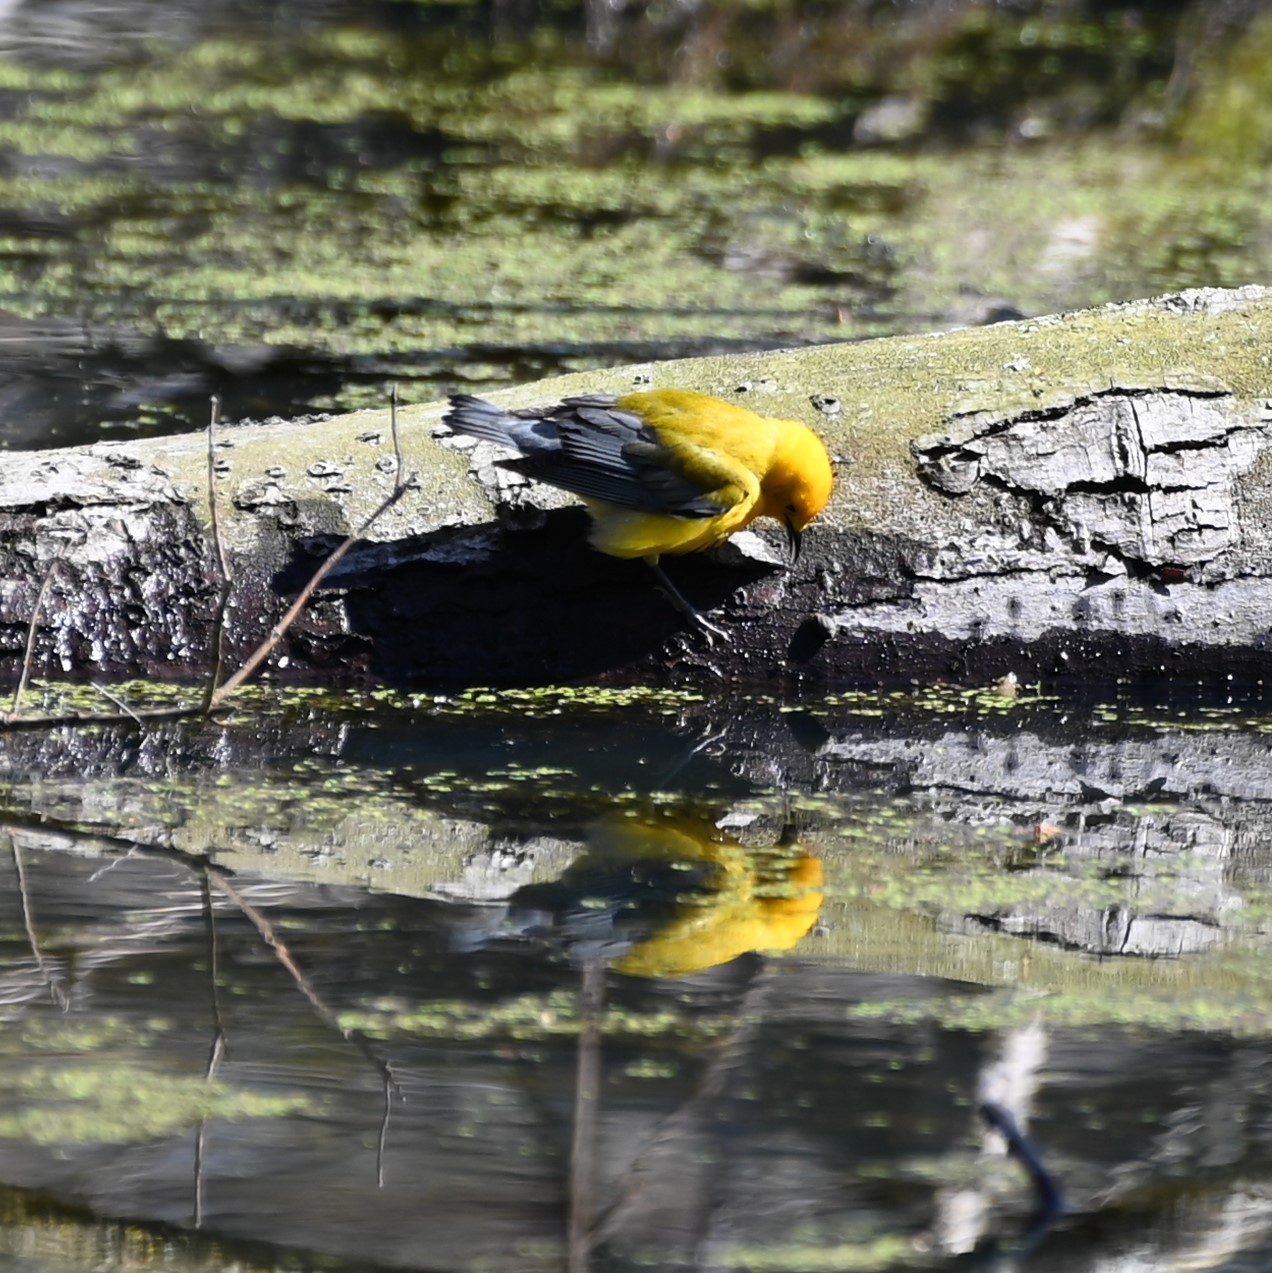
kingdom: Animalia
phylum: Chordata
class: Aves
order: Passeriformes
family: Parulidae
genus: Protonotaria
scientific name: Protonotaria citrea
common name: Prothonotary warbler
